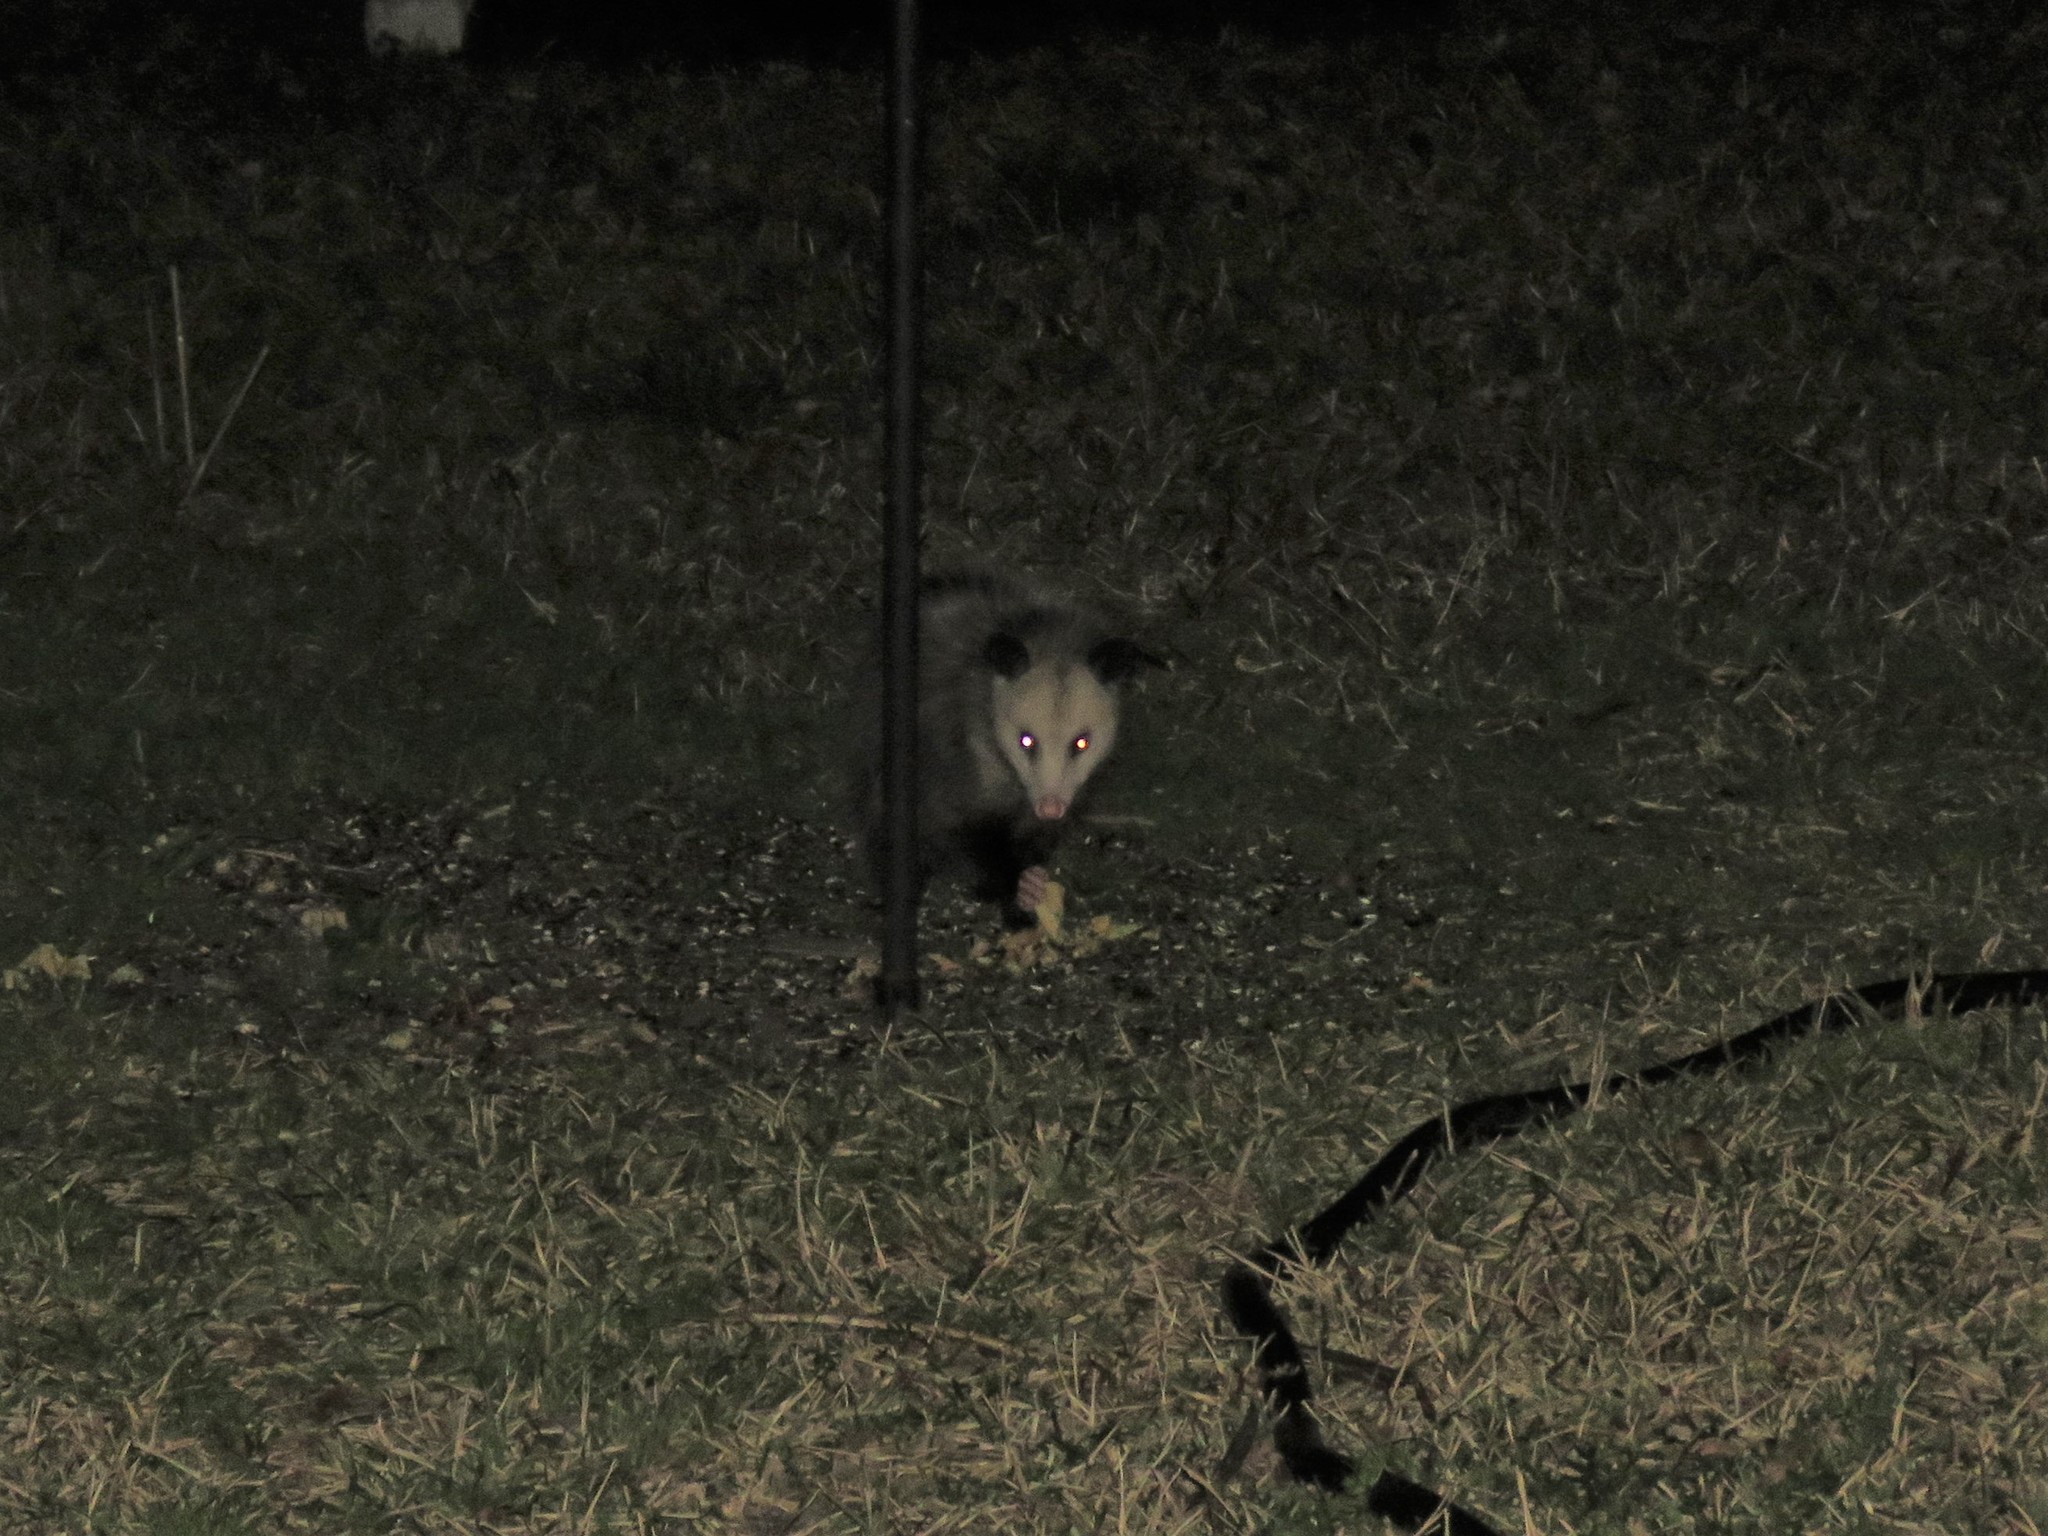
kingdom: Animalia
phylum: Chordata
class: Mammalia
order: Didelphimorphia
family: Didelphidae
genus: Didelphis
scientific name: Didelphis virginiana
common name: Virginia opossum
